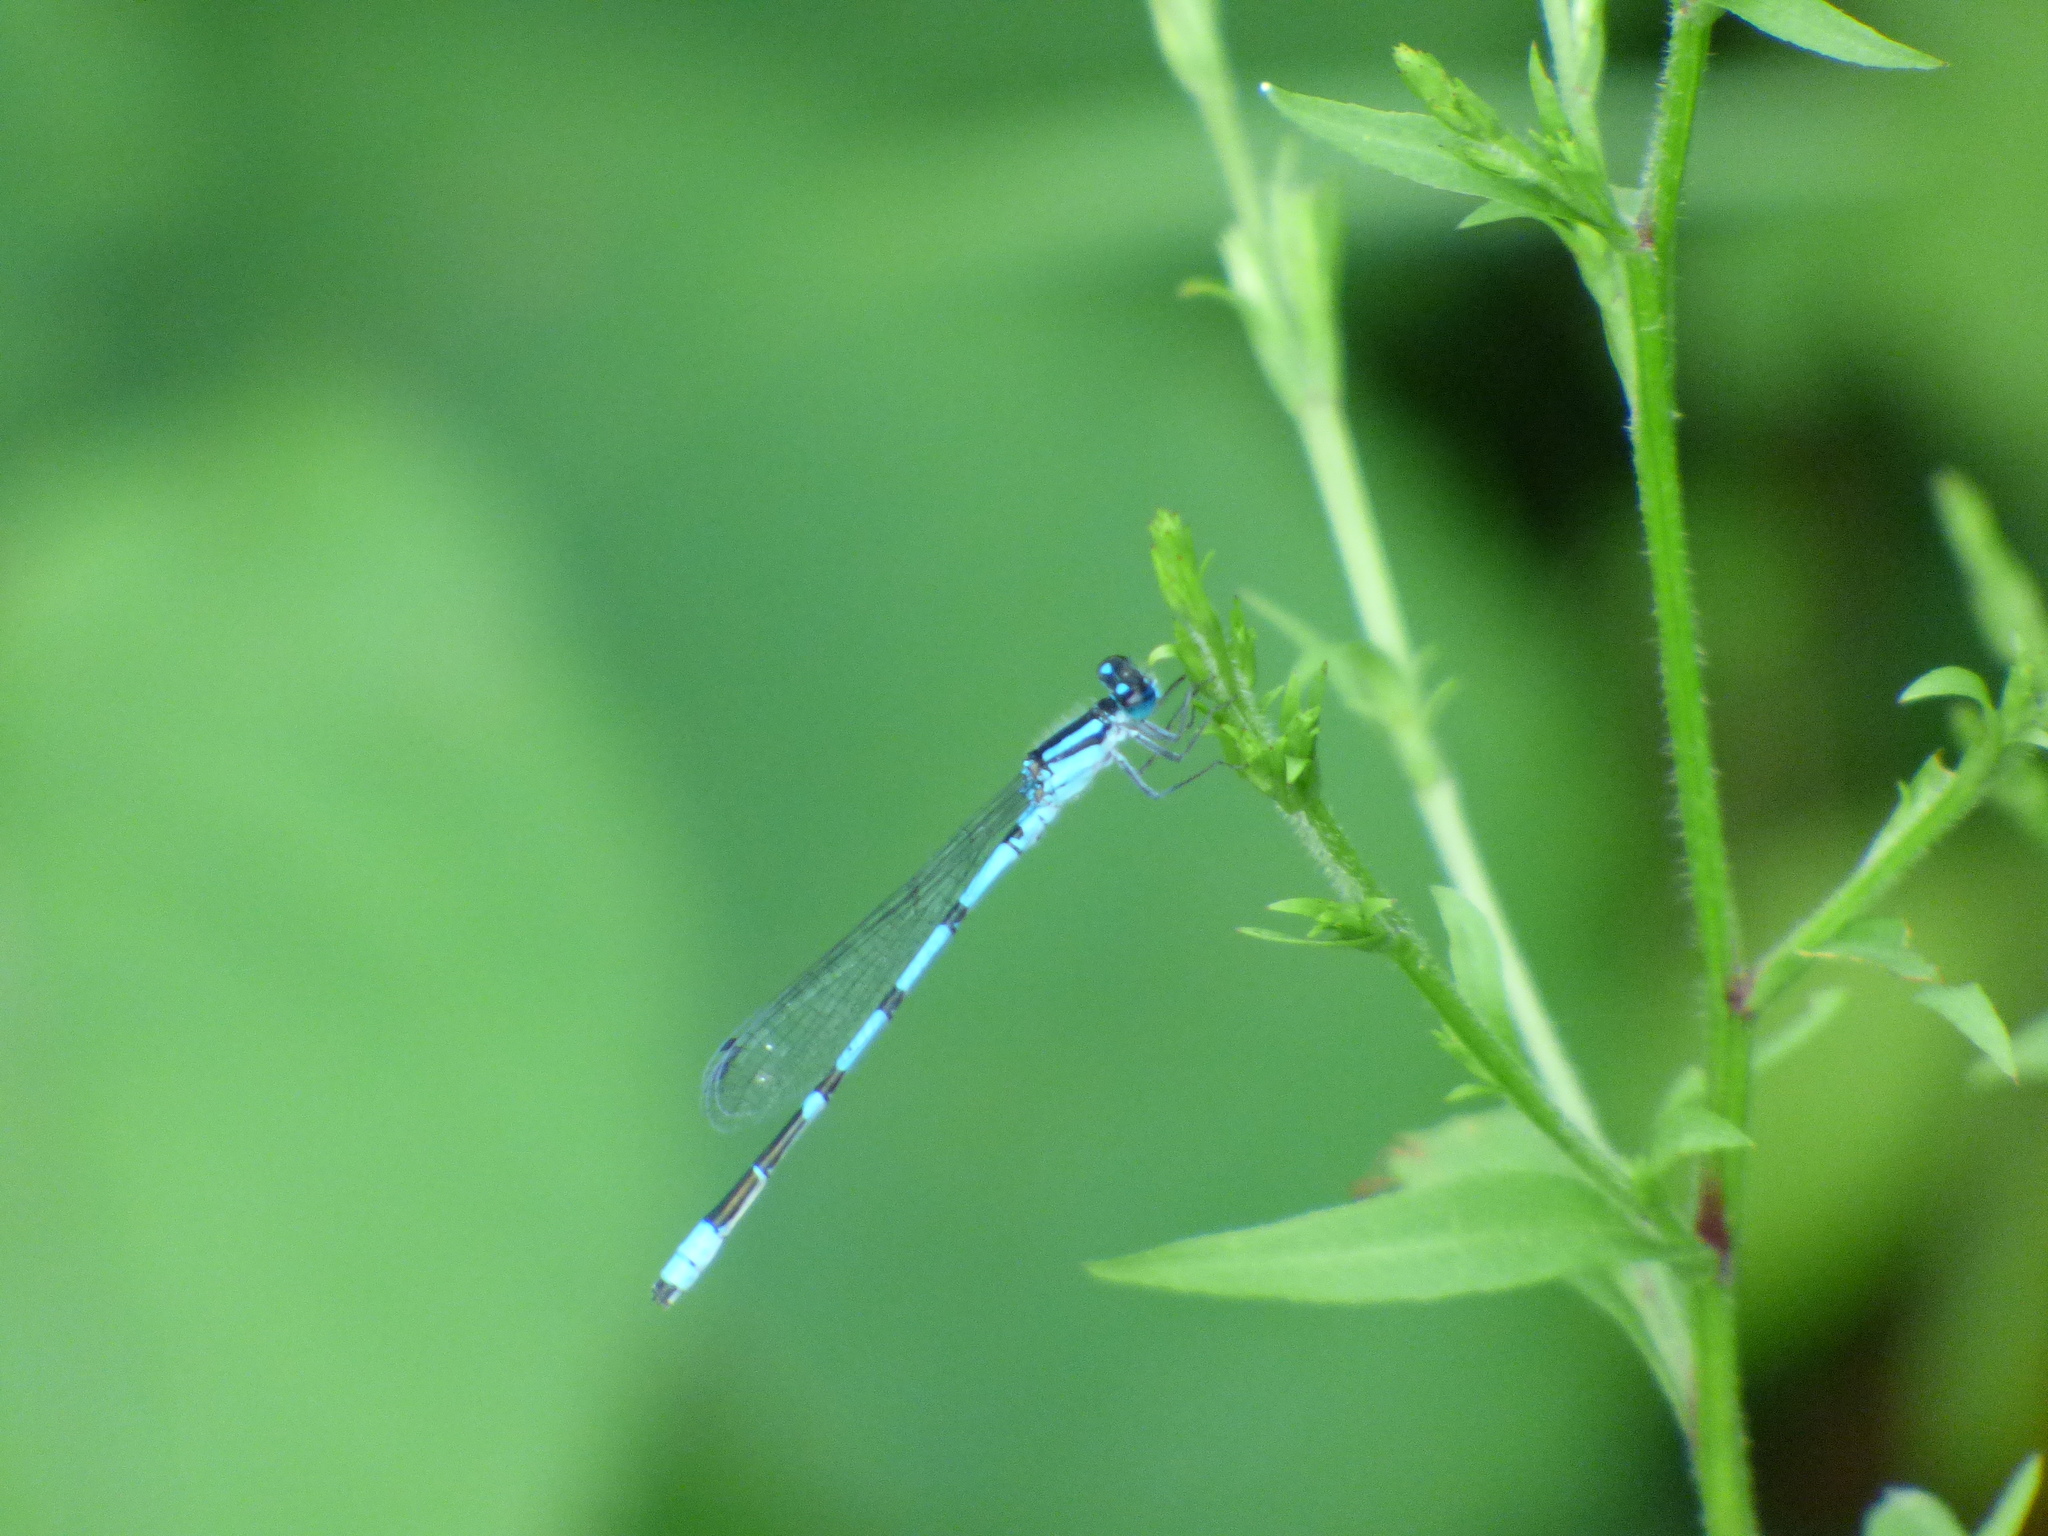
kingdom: Animalia
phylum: Arthropoda
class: Insecta
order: Odonata
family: Coenagrionidae
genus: Enallagma
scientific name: Enallagma
